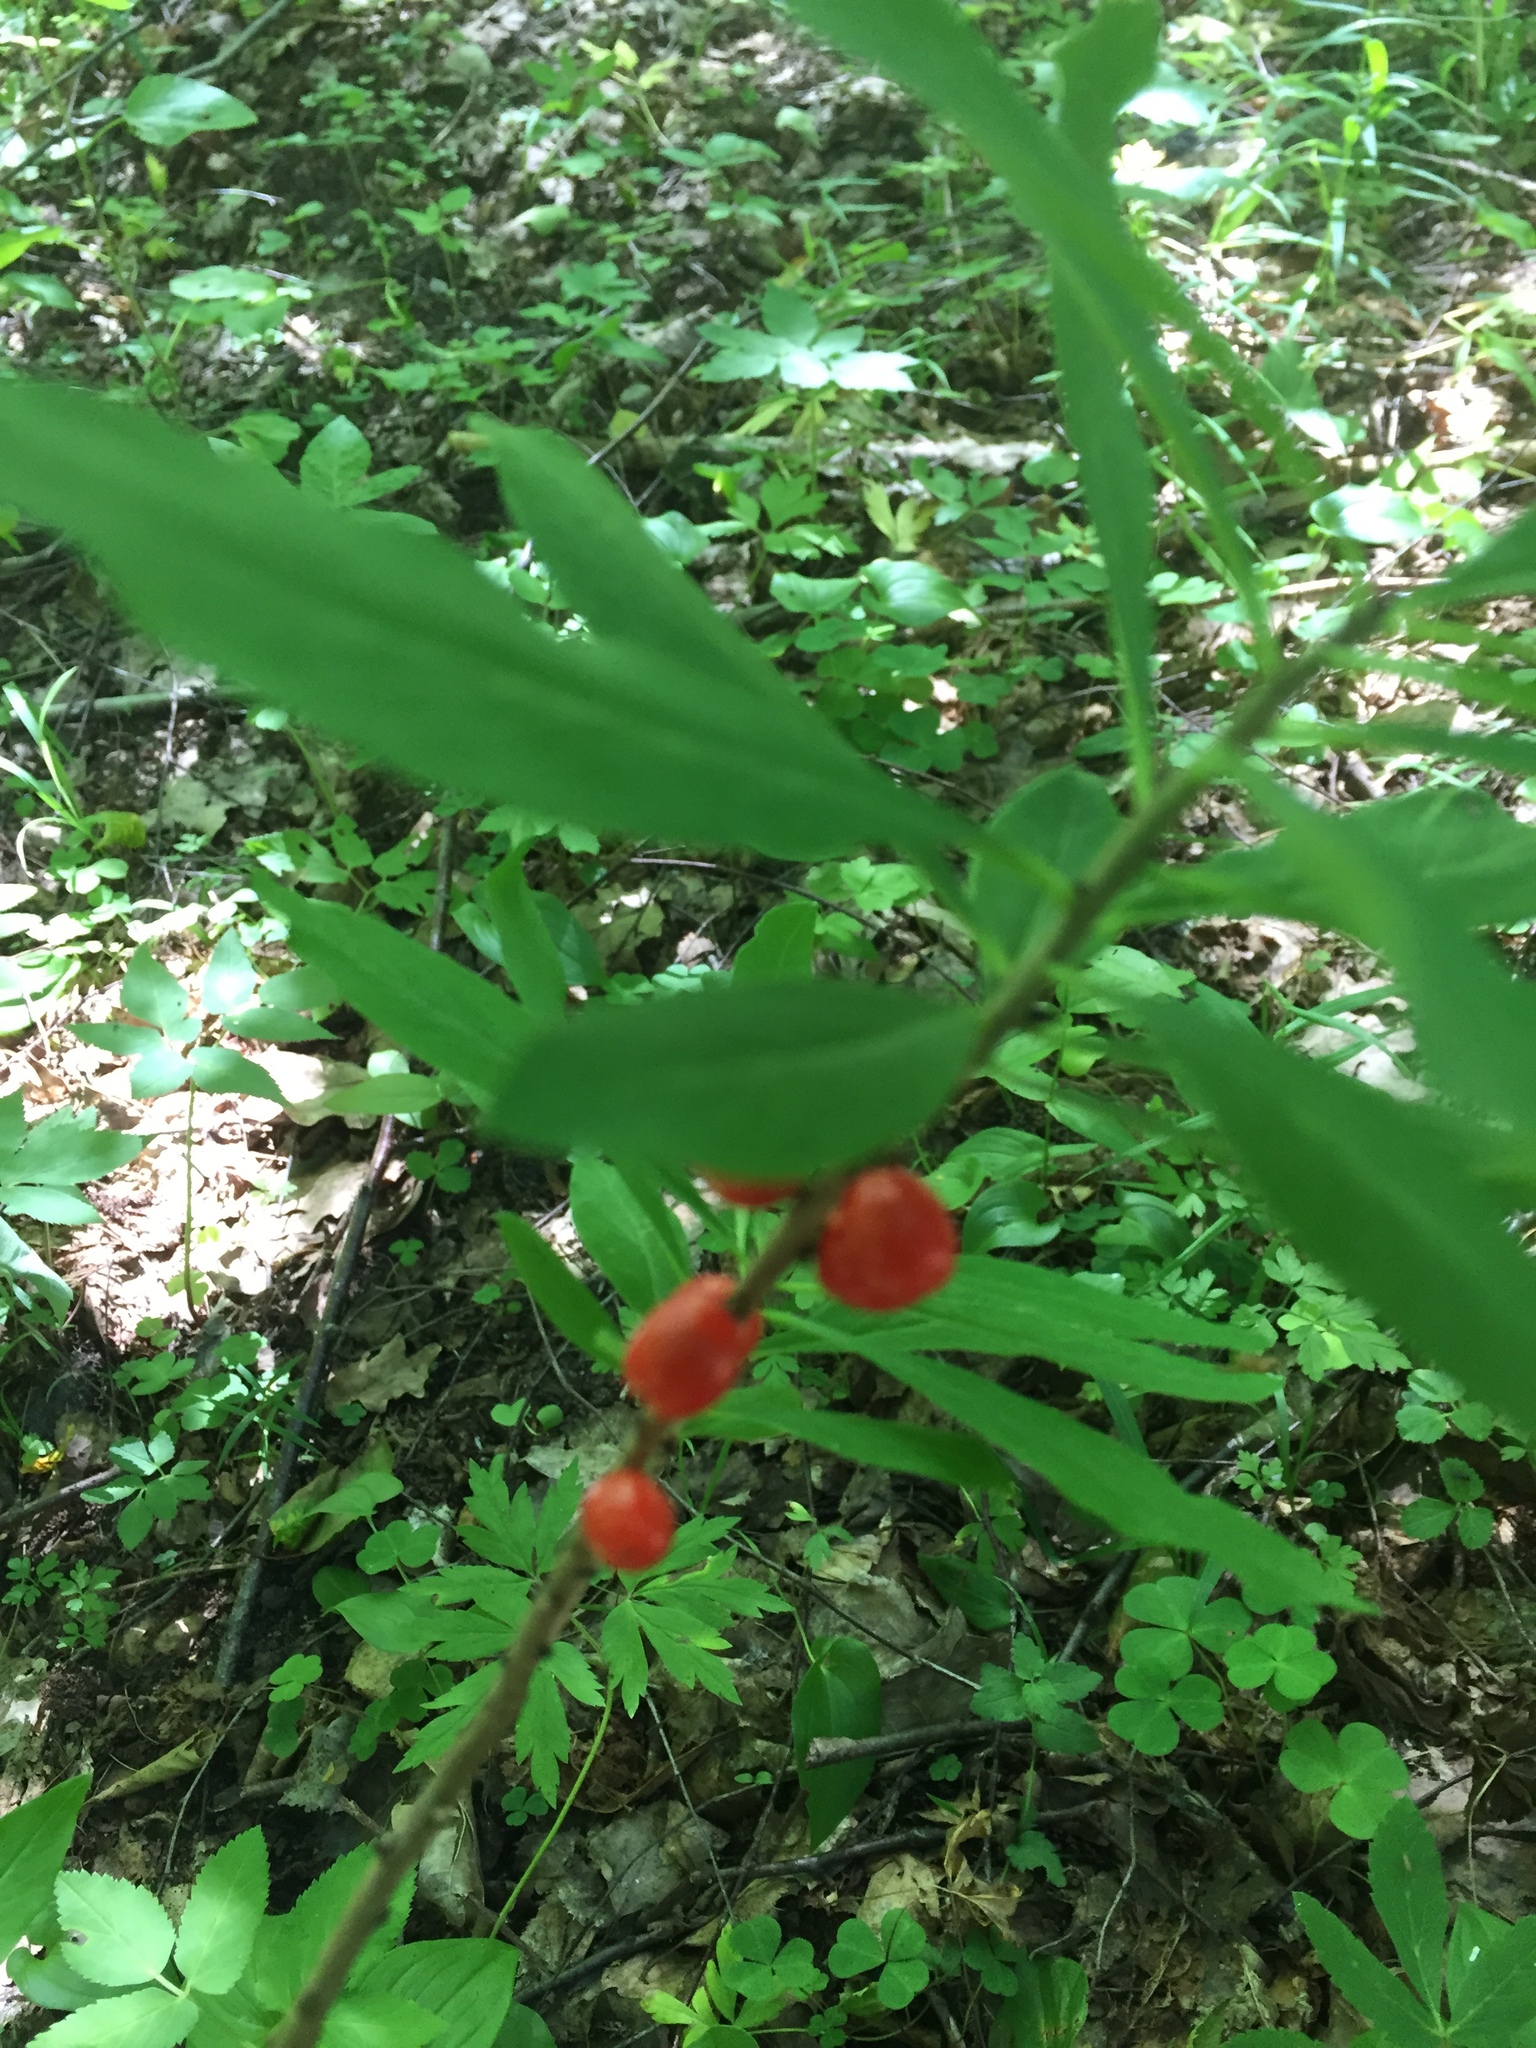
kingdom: Plantae
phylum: Tracheophyta
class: Magnoliopsida
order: Malvales
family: Thymelaeaceae
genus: Daphne
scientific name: Daphne mezereum
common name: Mezereon
